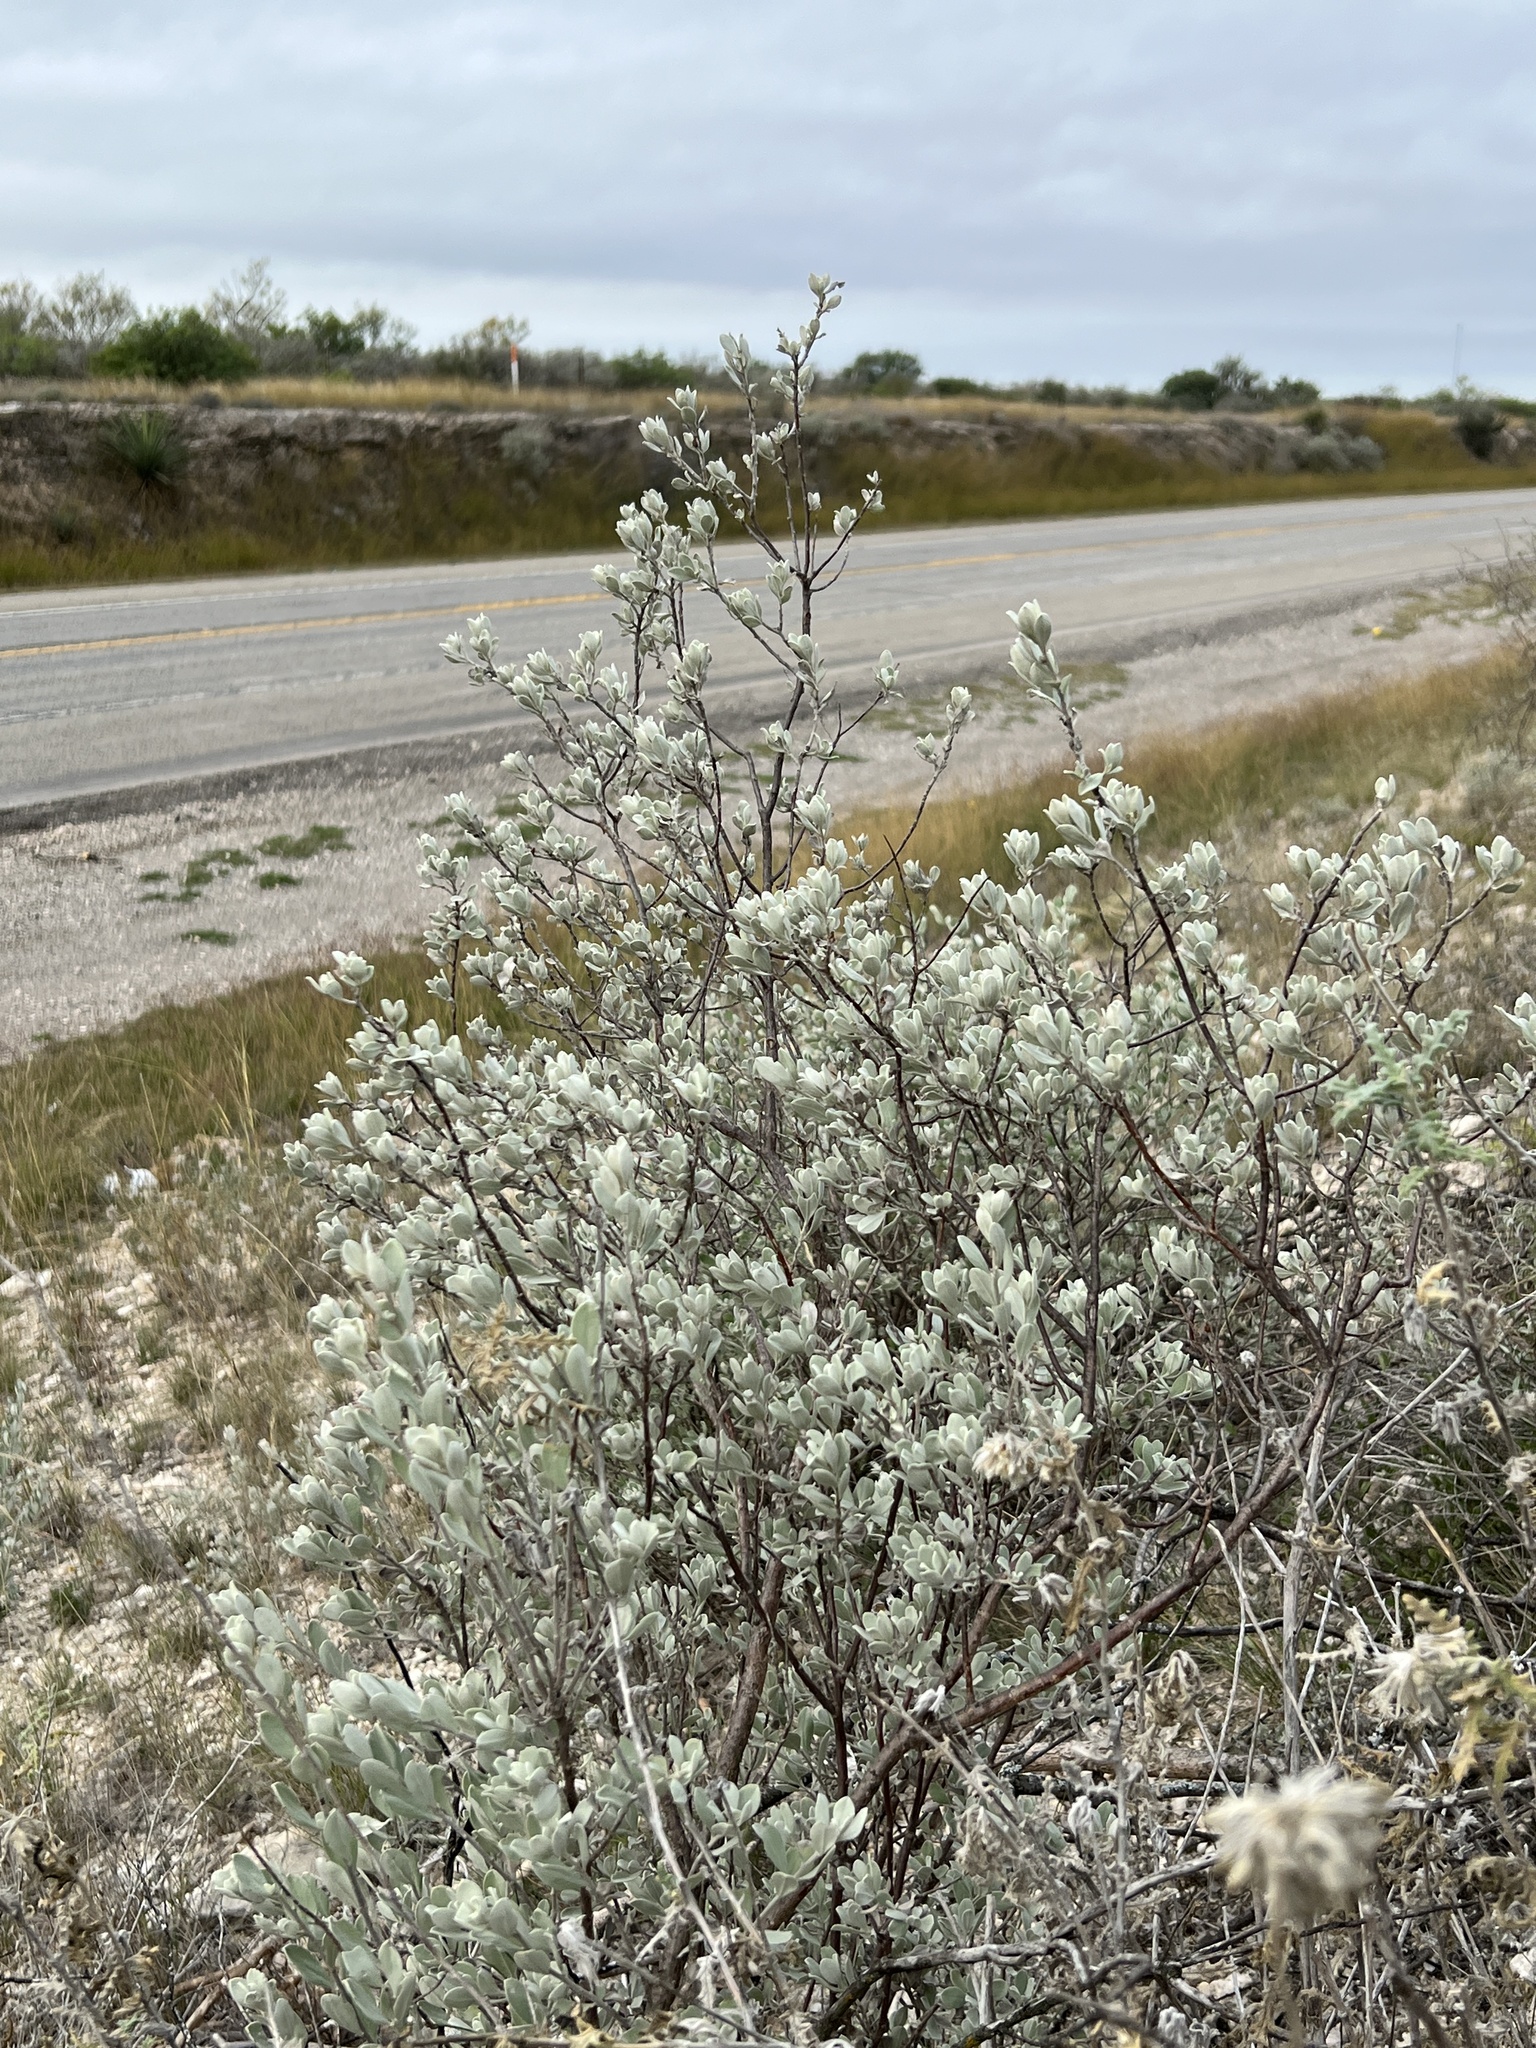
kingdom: Plantae
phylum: Tracheophyta
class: Magnoliopsida
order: Lamiales
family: Scrophulariaceae
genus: Leucophyllum
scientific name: Leucophyllum frutescens
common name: Texas silverleaf
